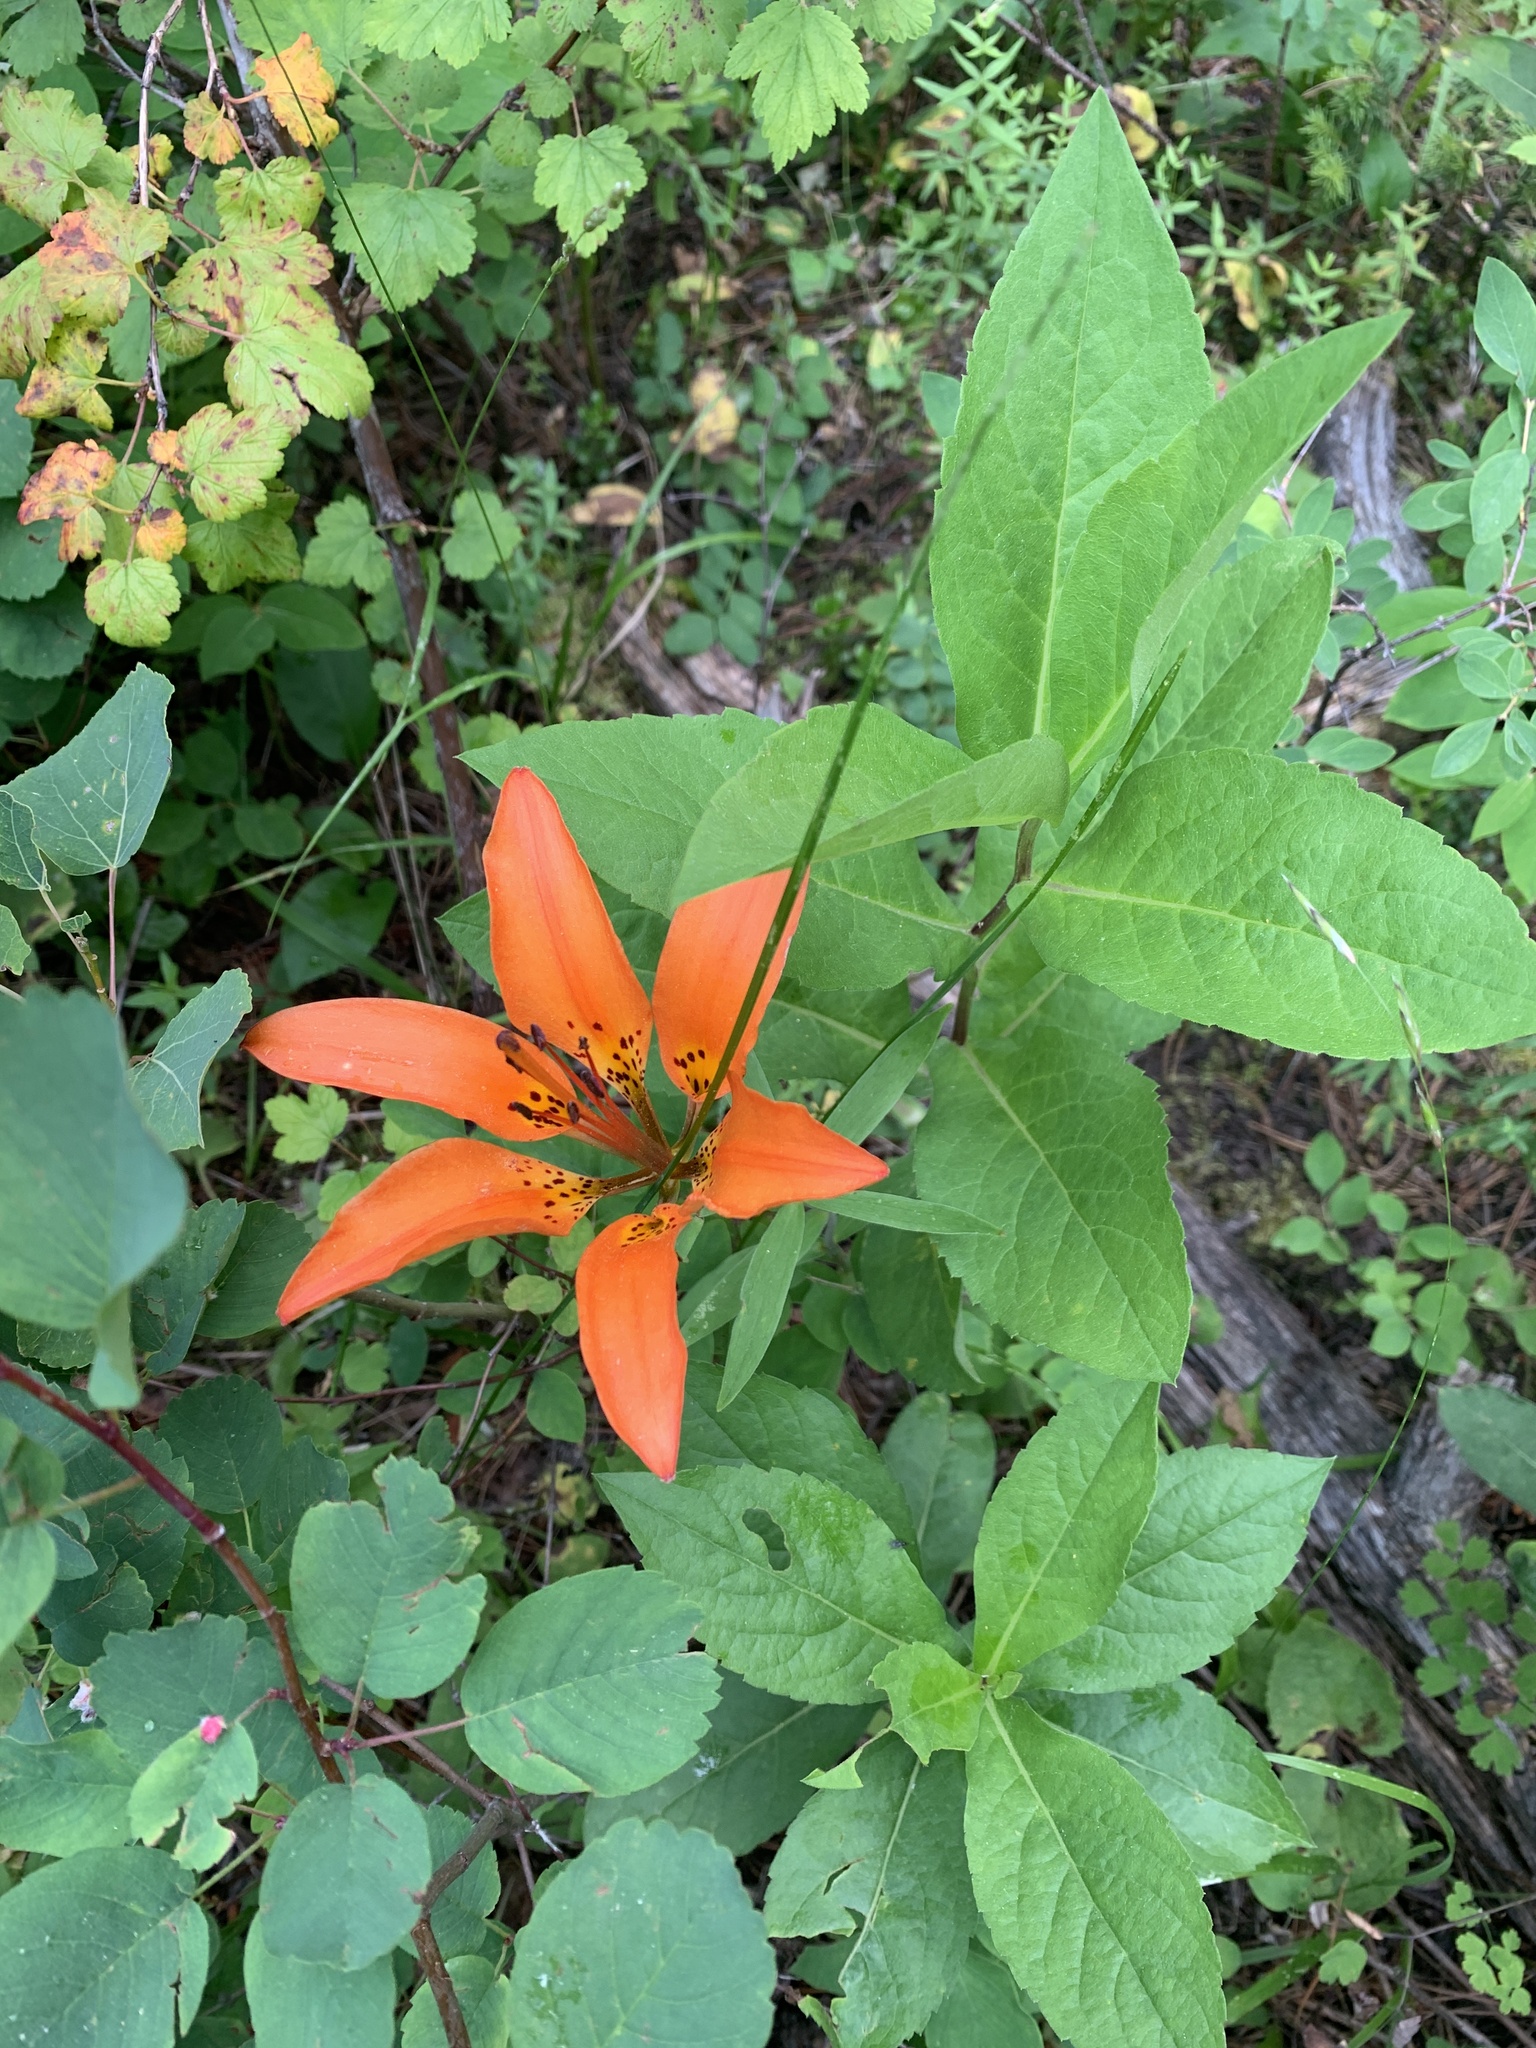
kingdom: Plantae
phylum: Tracheophyta
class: Liliopsida
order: Liliales
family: Liliaceae
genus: Lilium
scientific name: Lilium philadelphicum
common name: Red lily
